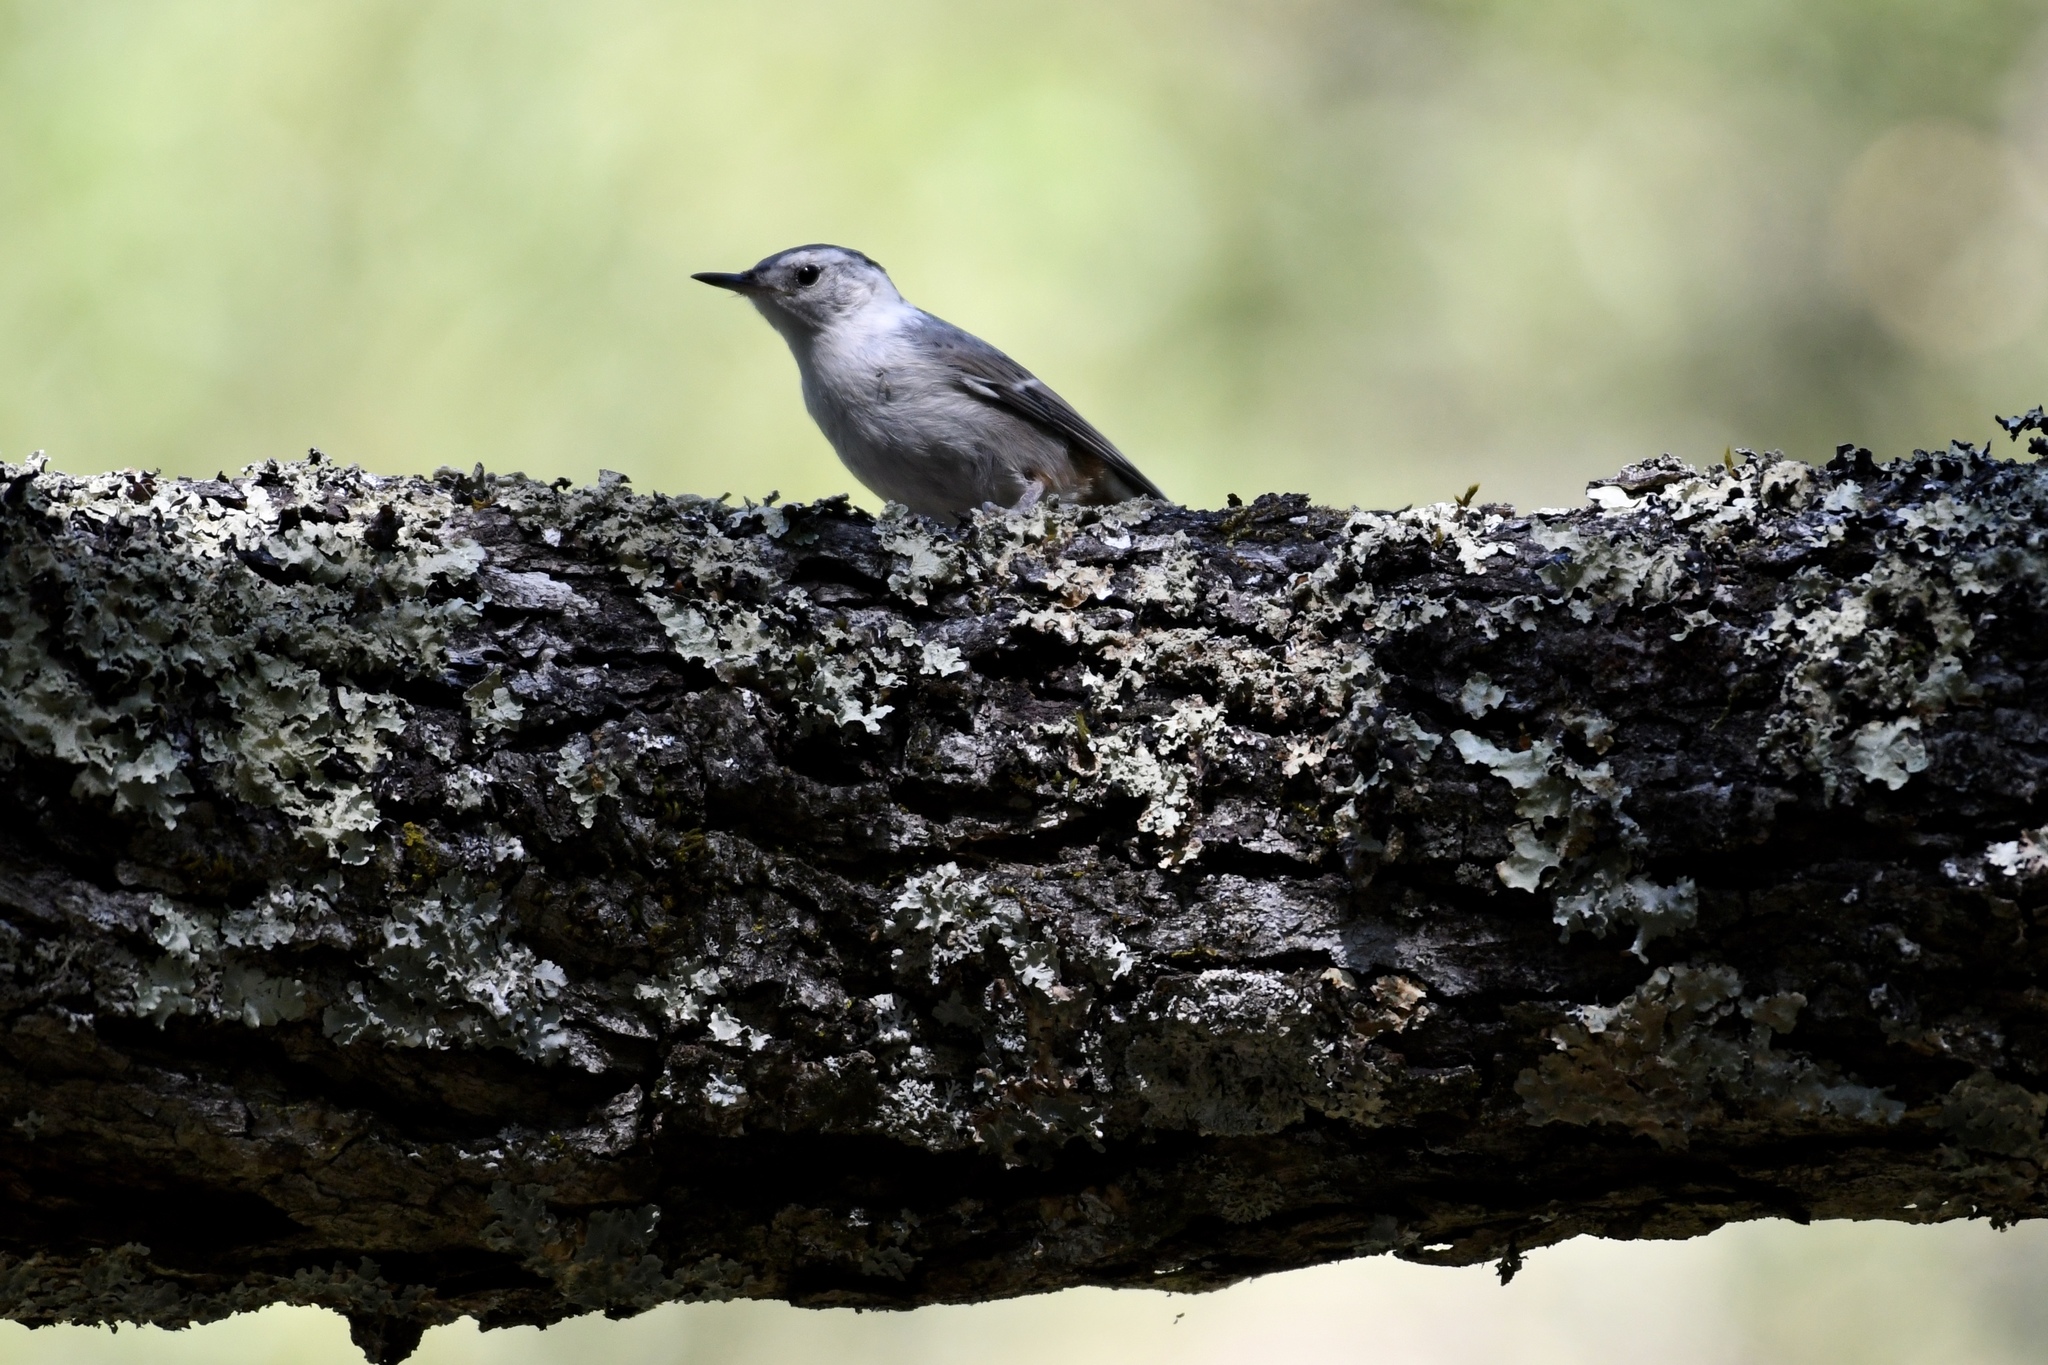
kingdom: Animalia
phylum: Chordata
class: Aves
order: Passeriformes
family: Sittidae
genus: Sitta
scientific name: Sitta carolinensis
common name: White-breasted nuthatch
